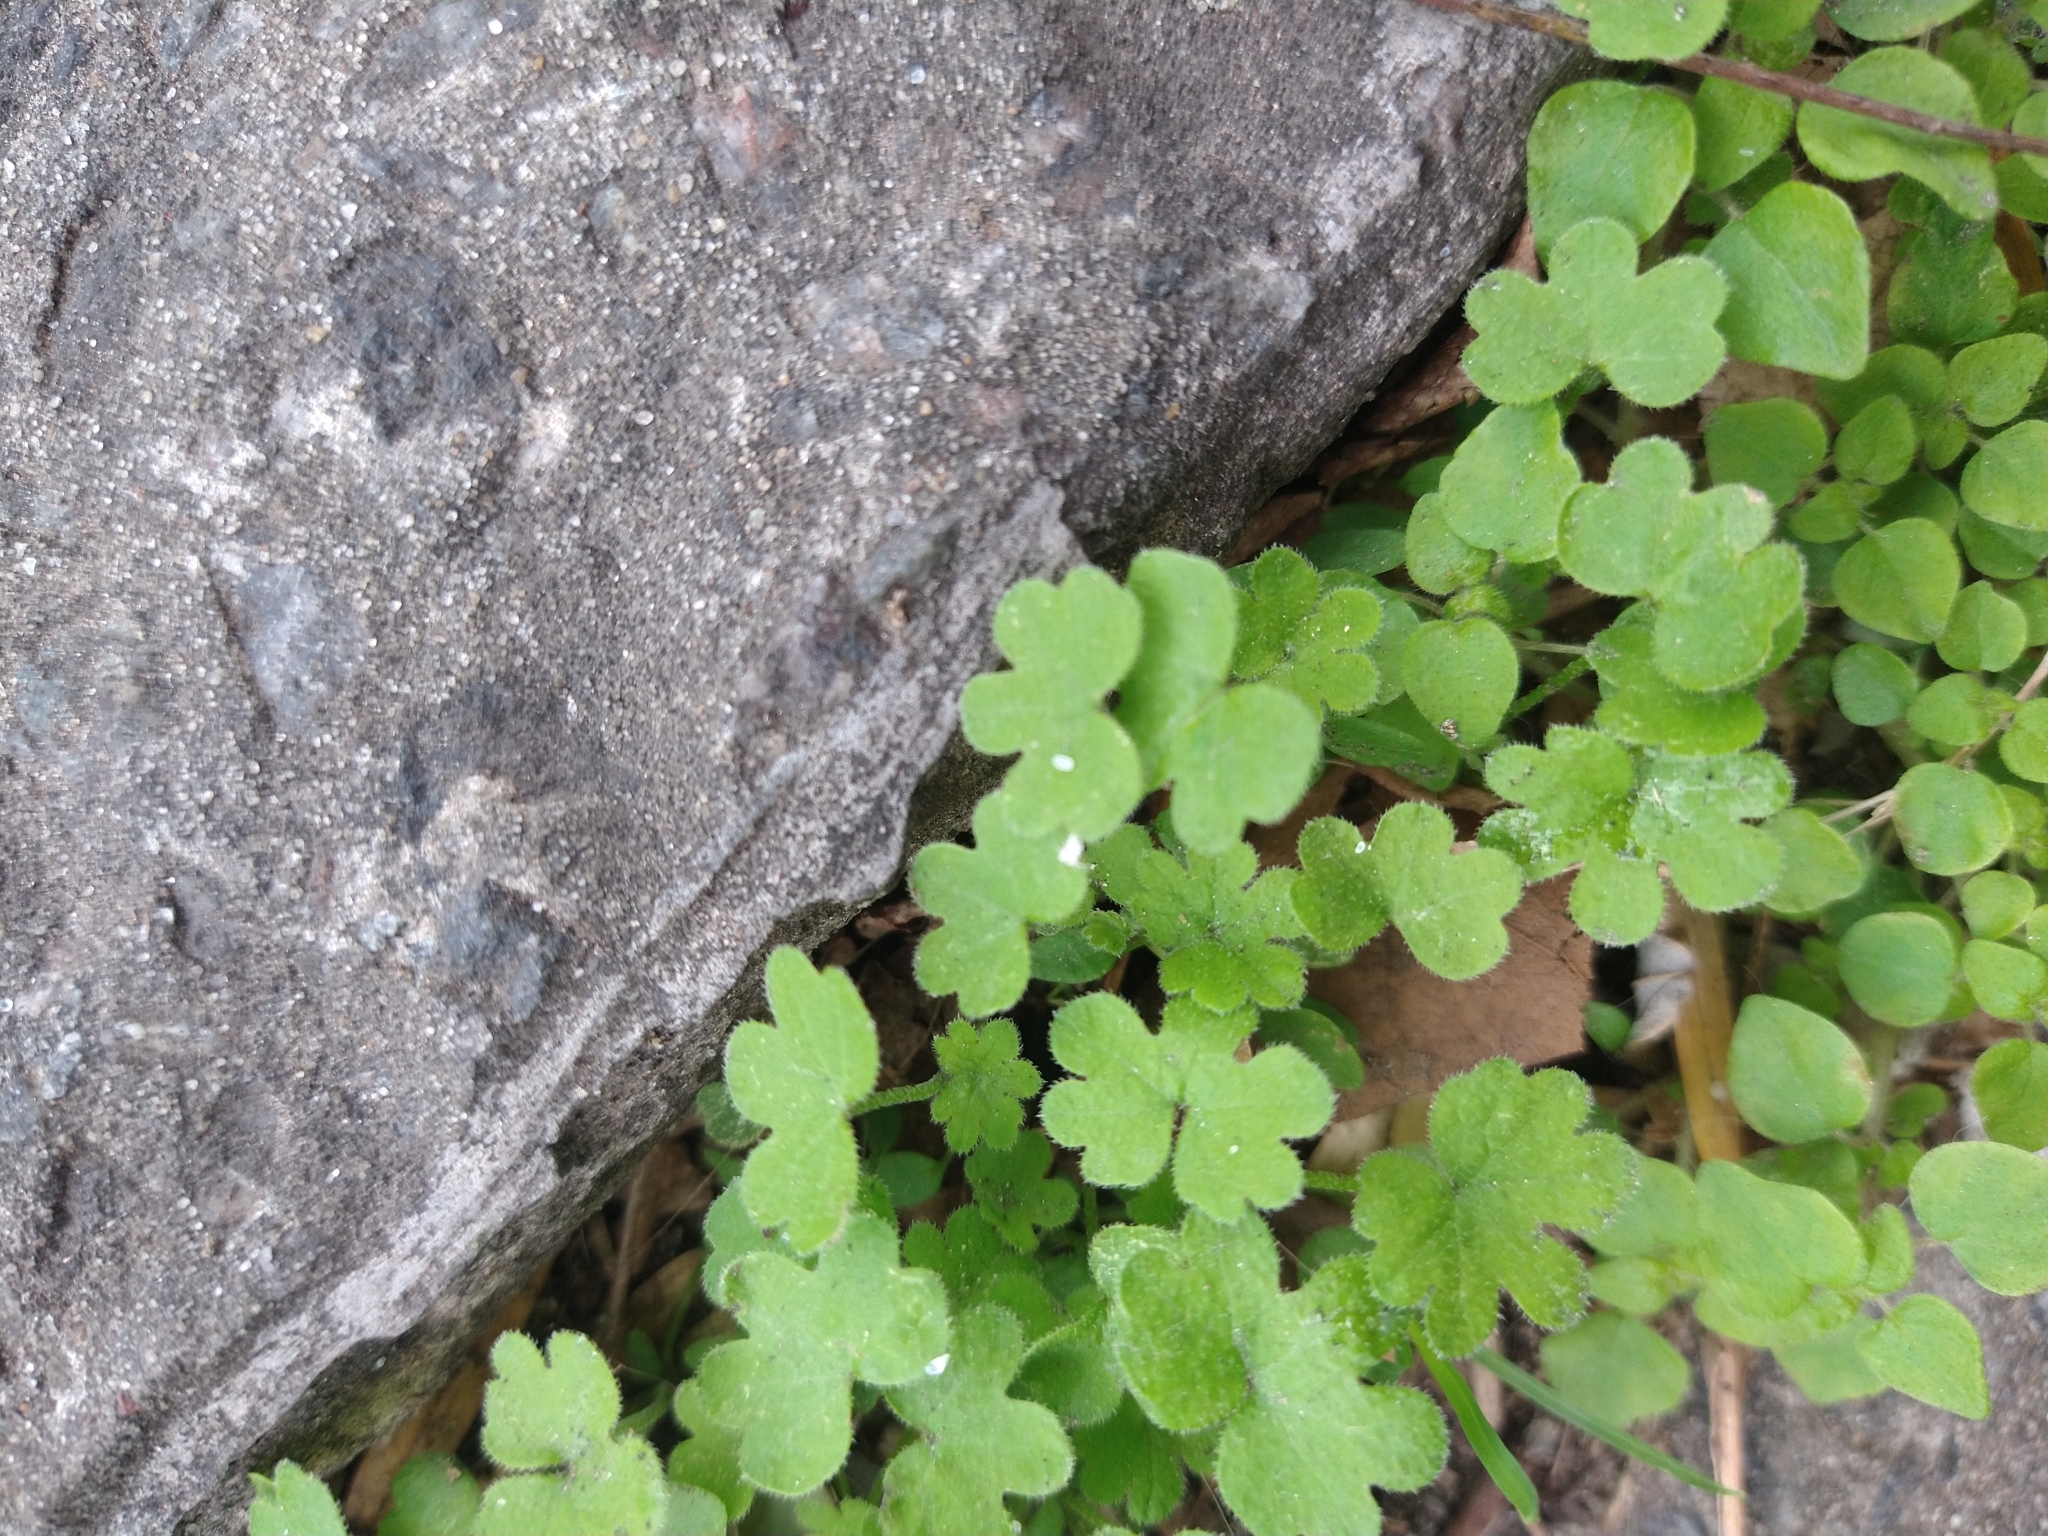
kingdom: Plantae
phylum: Tracheophyta
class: Magnoliopsida
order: Apiales
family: Apiaceae
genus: Bowlesia
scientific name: Bowlesia incana
